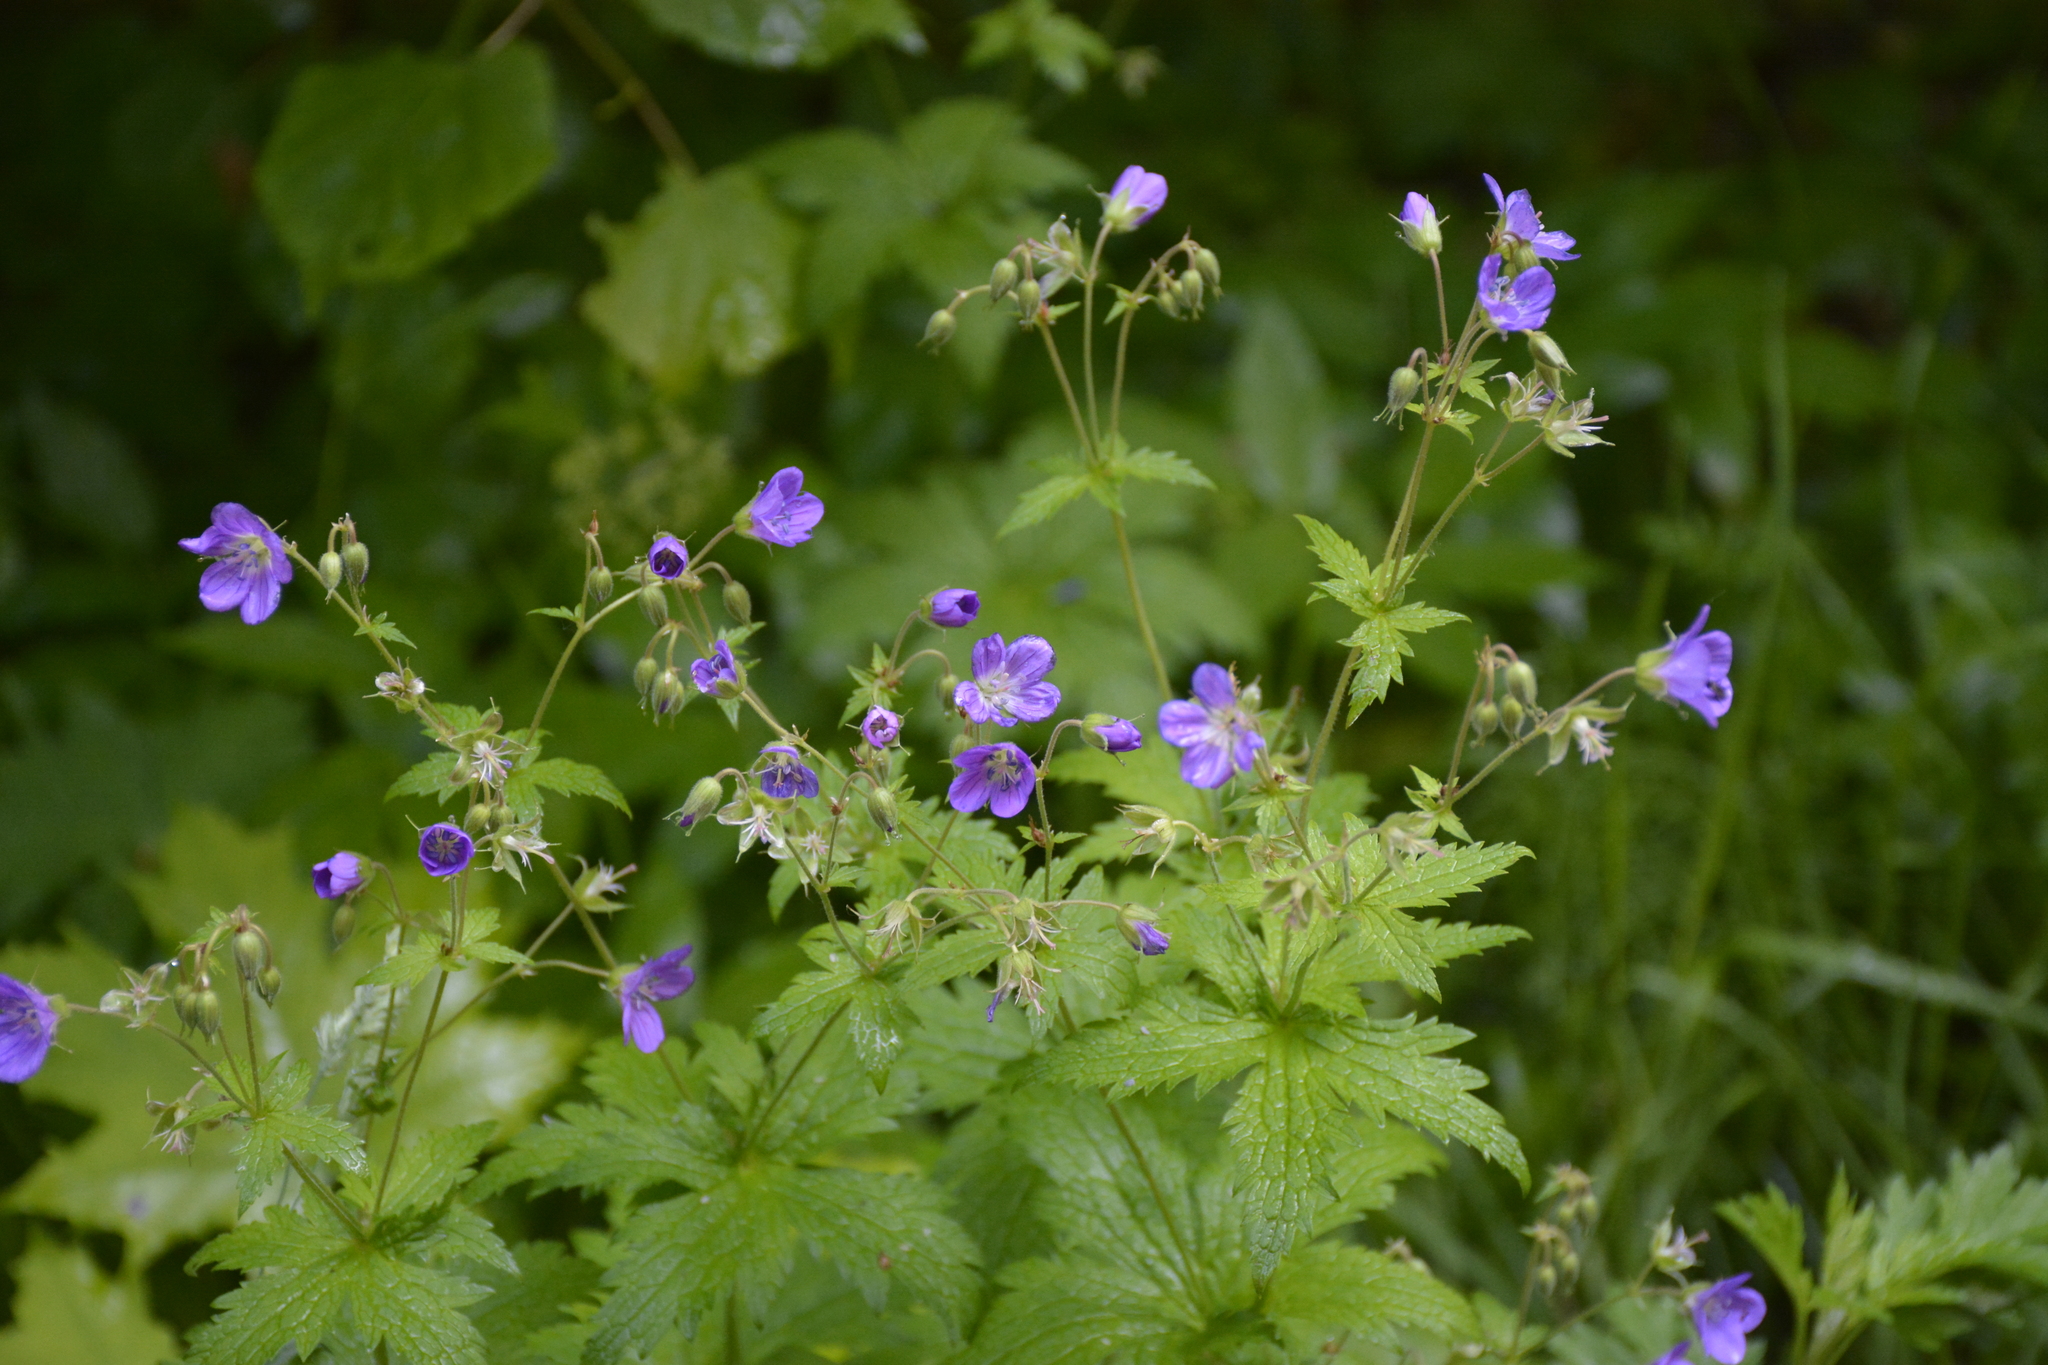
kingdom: Plantae
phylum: Tracheophyta
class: Magnoliopsida
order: Geraniales
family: Geraniaceae
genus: Geranium
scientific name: Geranium sylvaticum
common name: Wood crane's-bill
